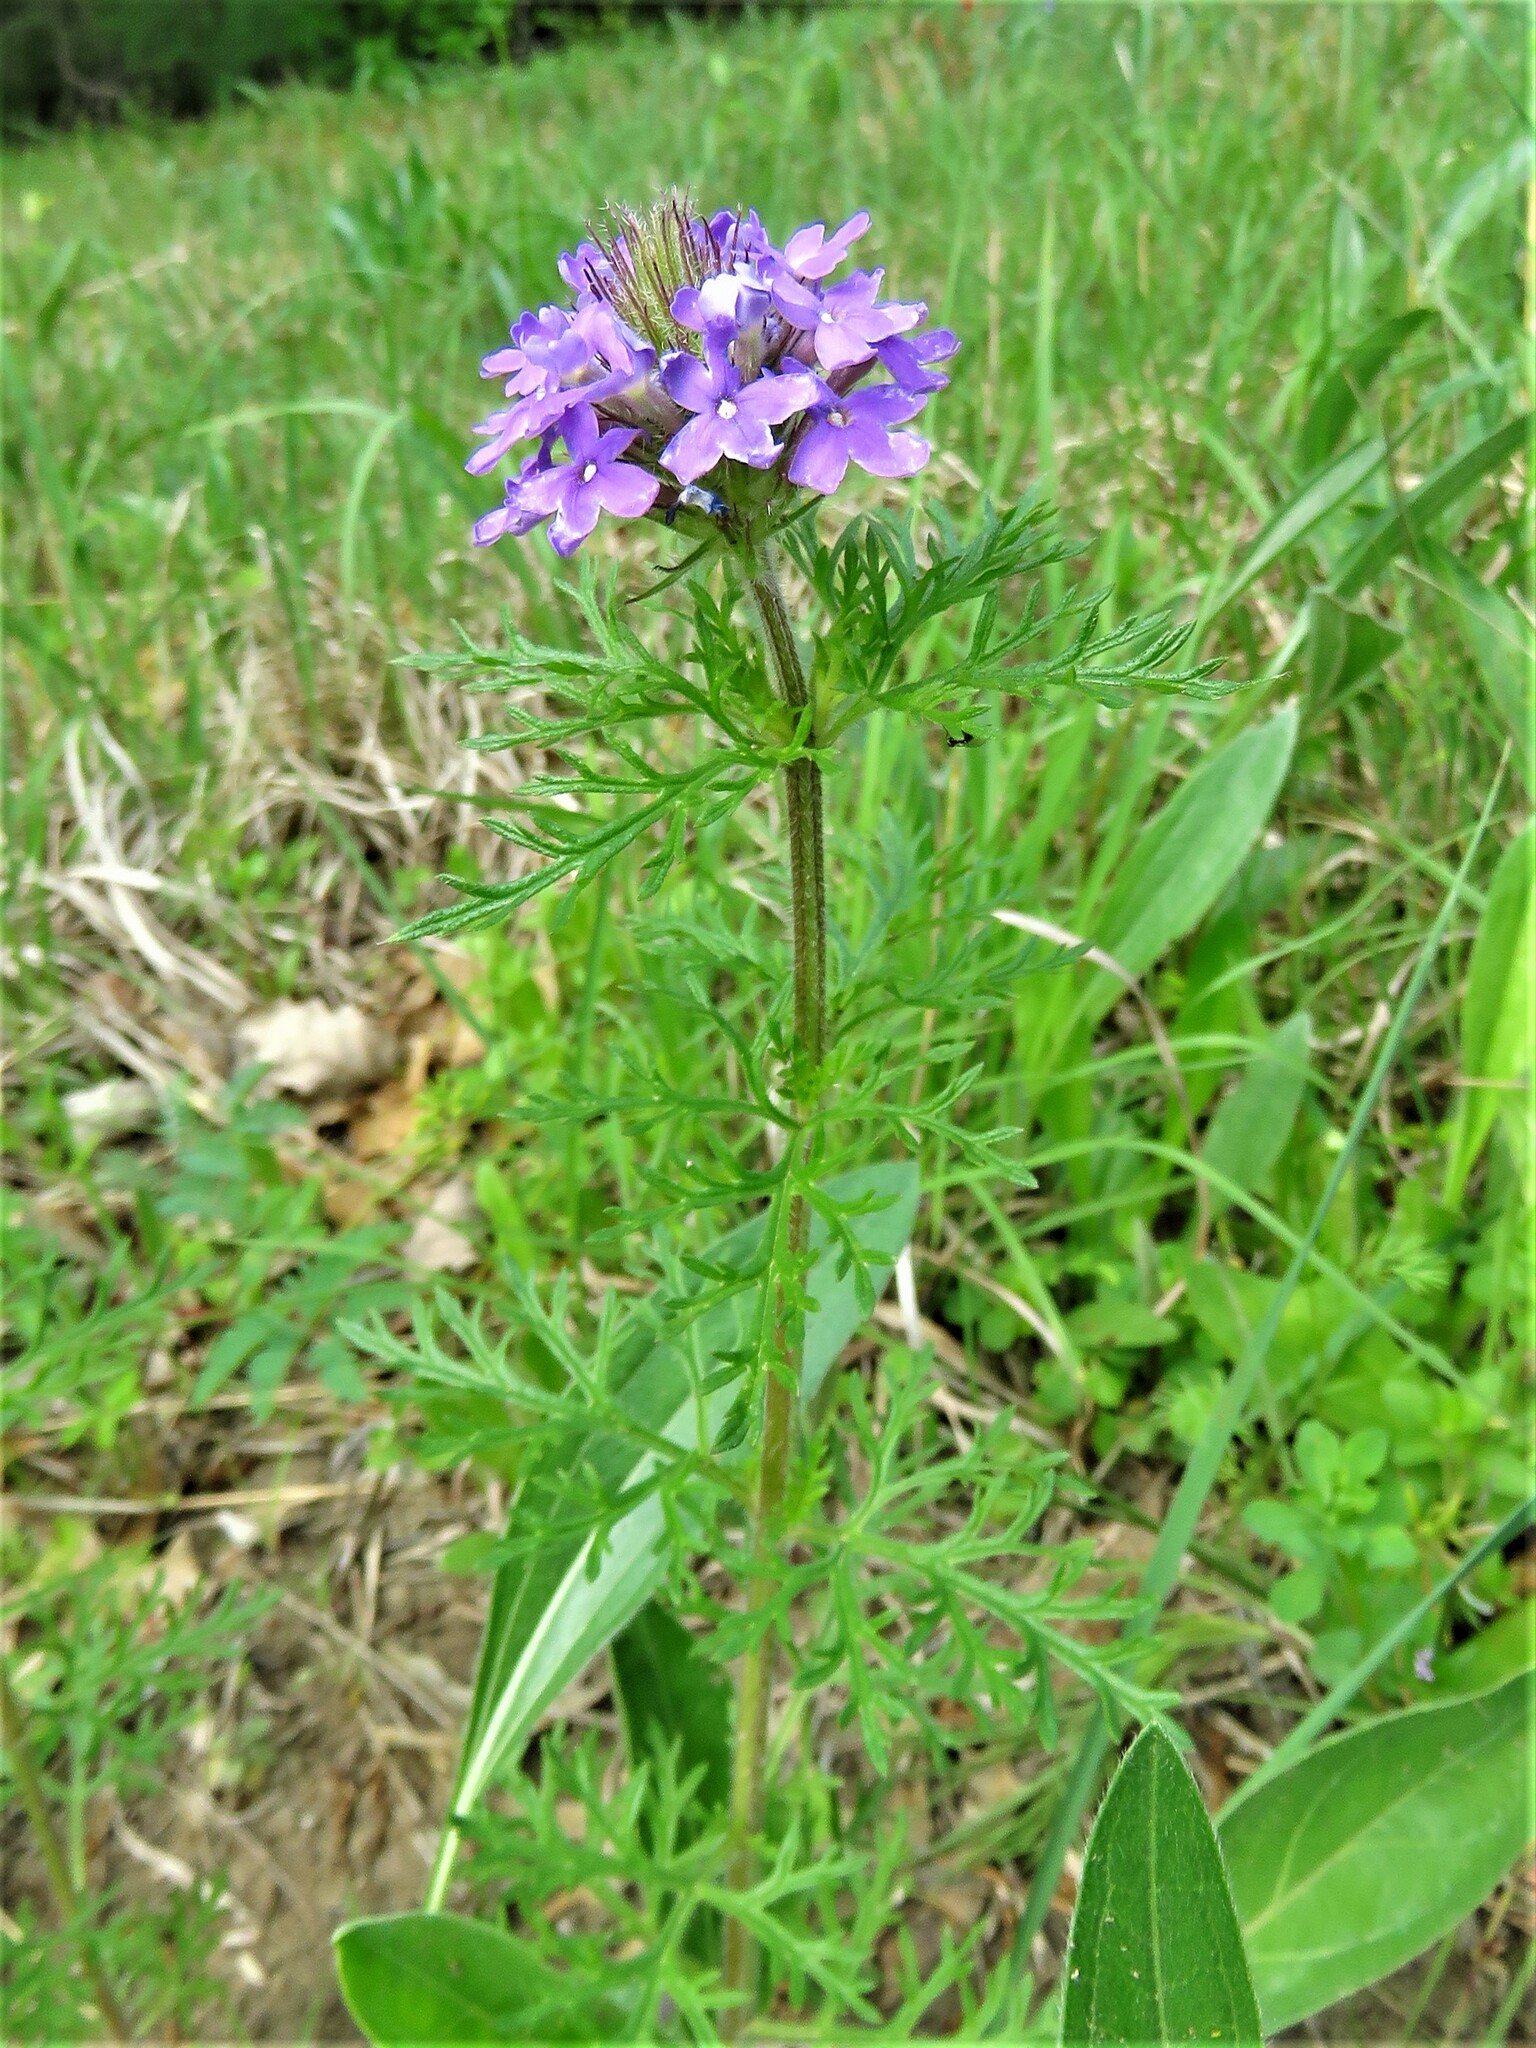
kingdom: Plantae
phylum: Tracheophyta
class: Magnoliopsida
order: Lamiales
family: Verbenaceae
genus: Verbena
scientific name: Verbena bipinnatifida
